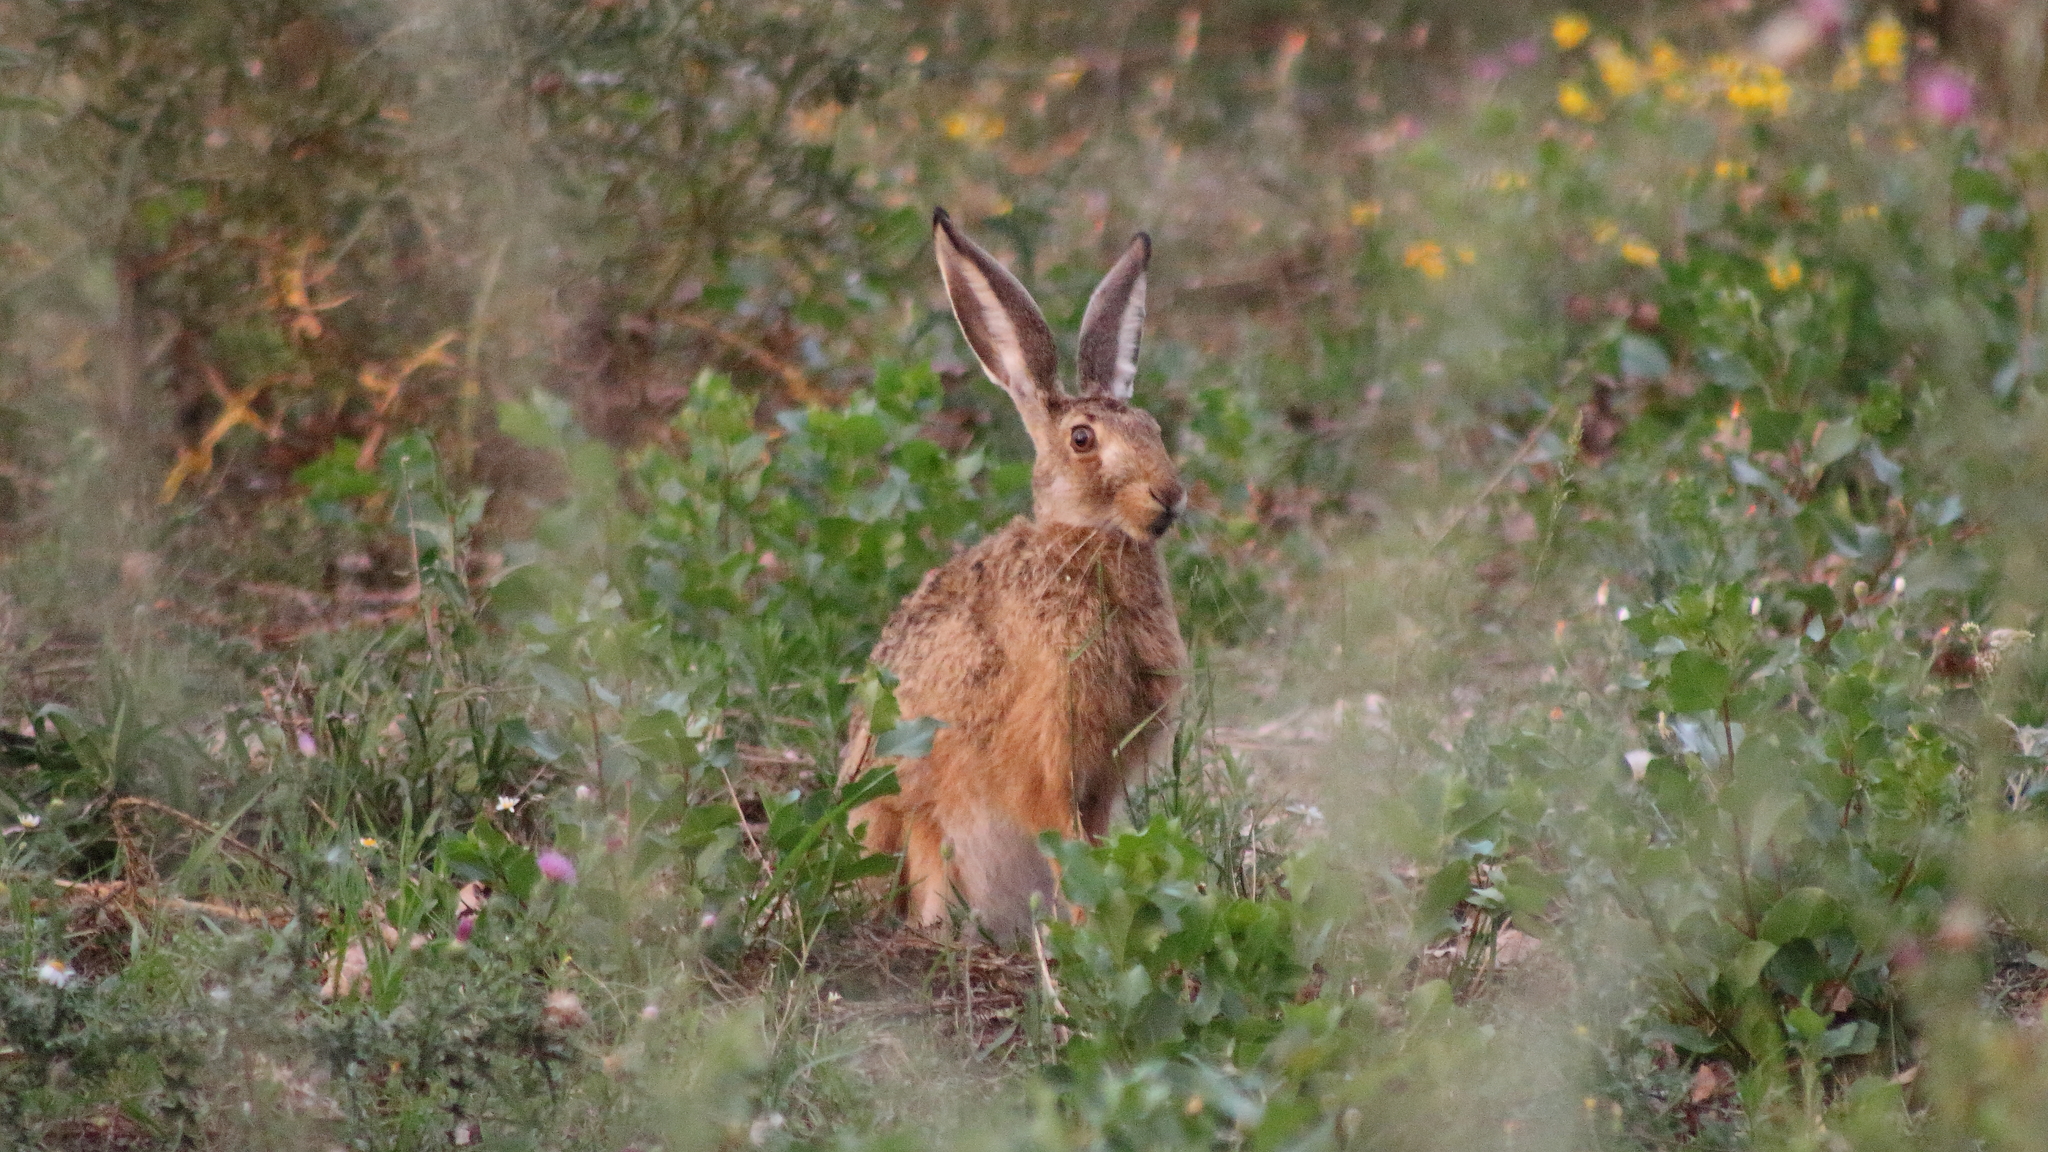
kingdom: Animalia
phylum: Chordata
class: Mammalia
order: Lagomorpha
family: Leporidae
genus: Lepus
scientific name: Lepus europaeus
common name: European hare
